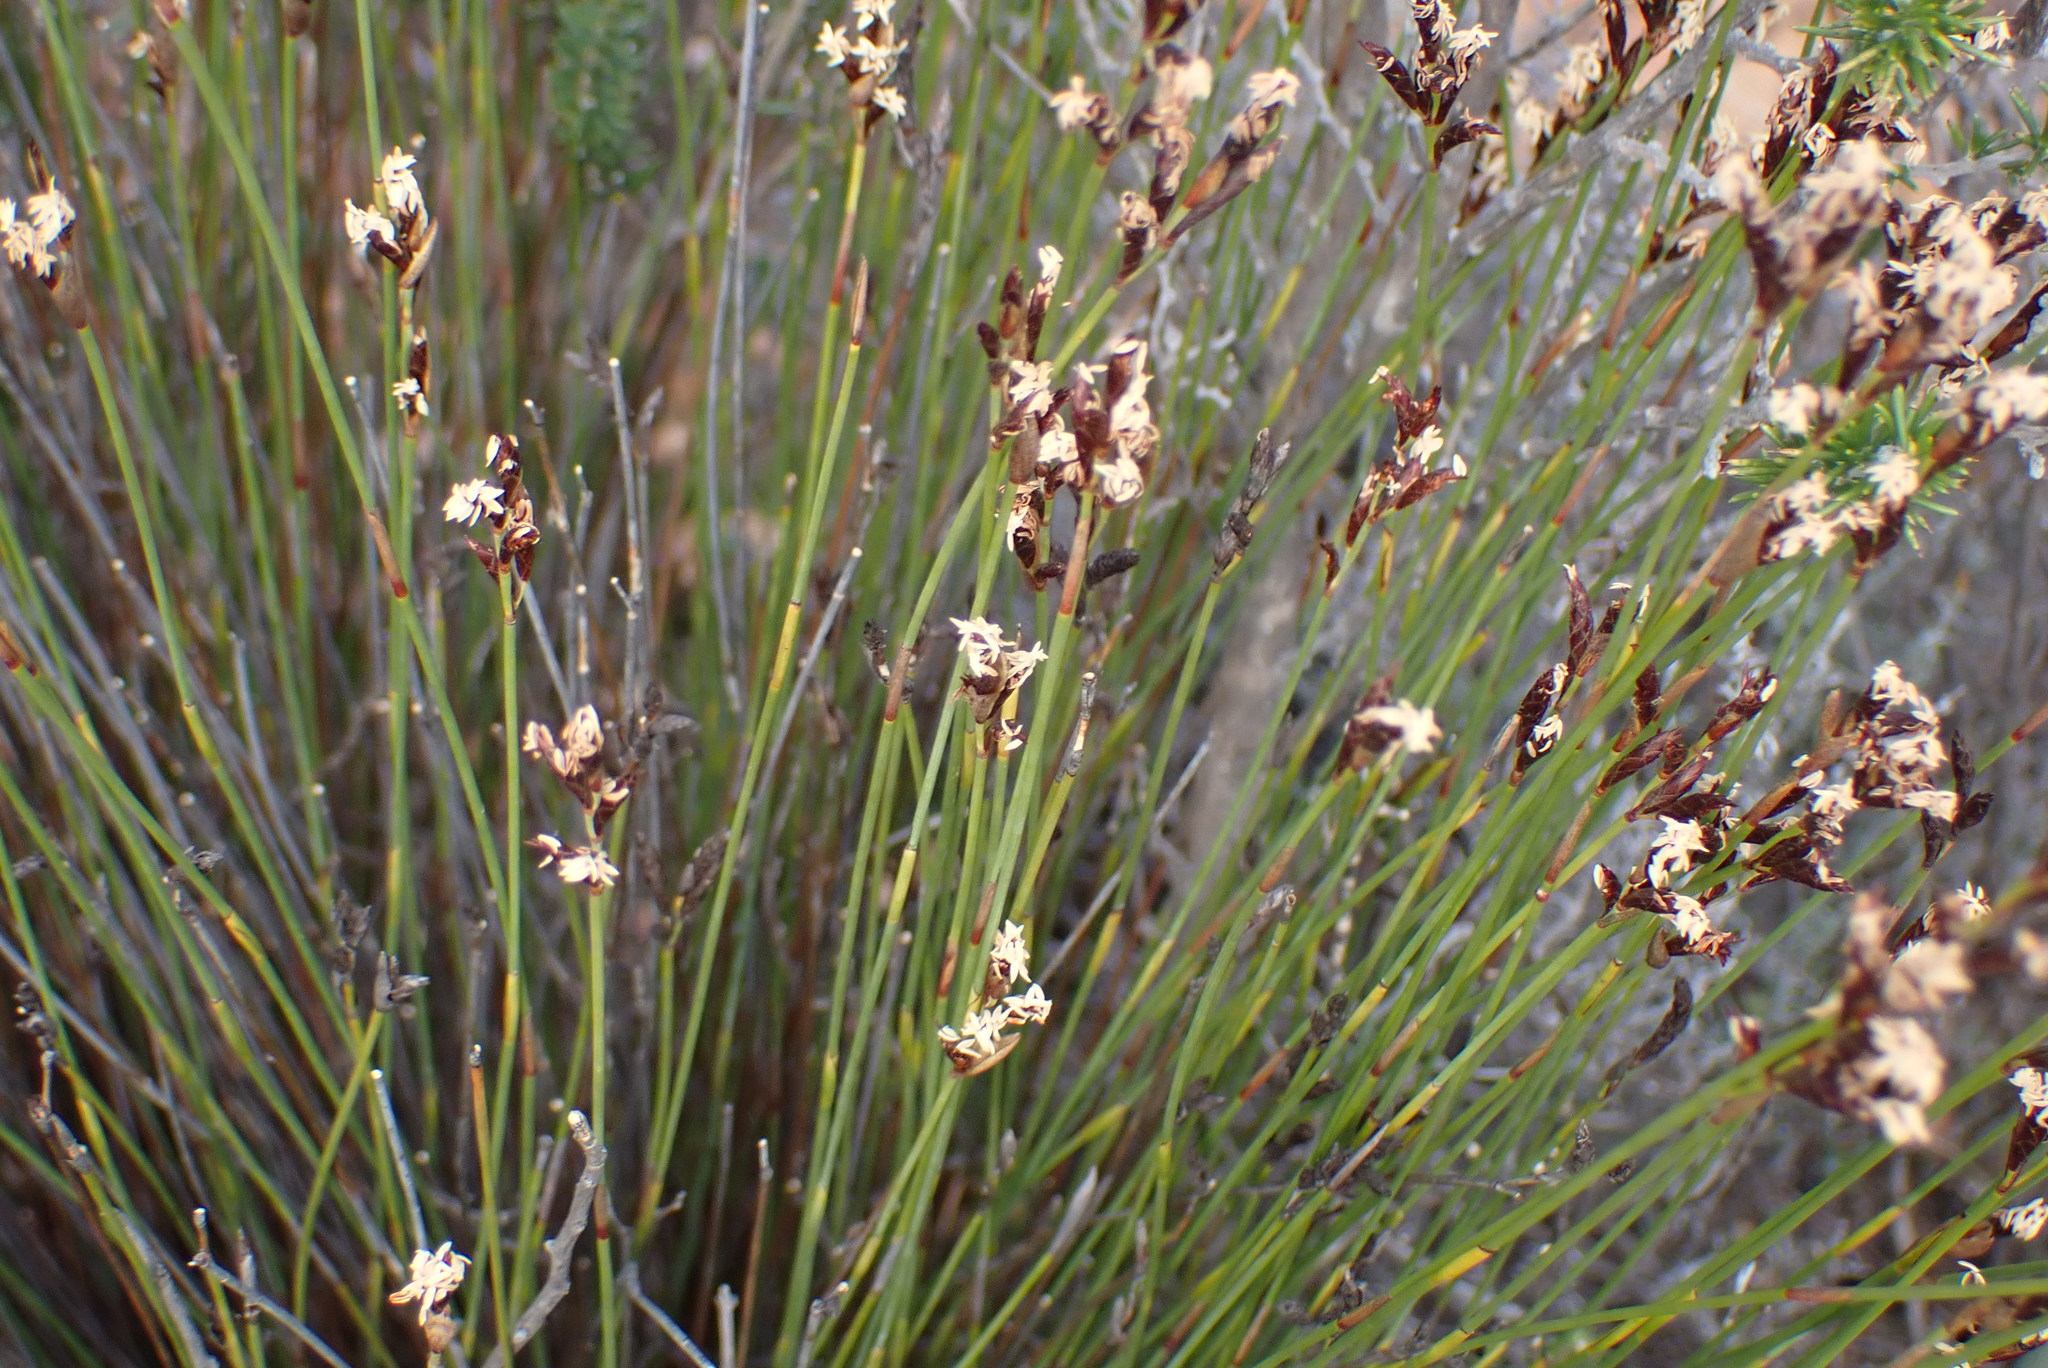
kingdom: Plantae
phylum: Tracheophyta
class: Liliopsida
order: Poales
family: Restionaceae
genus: Hypodiscus
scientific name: Hypodiscus striatus
